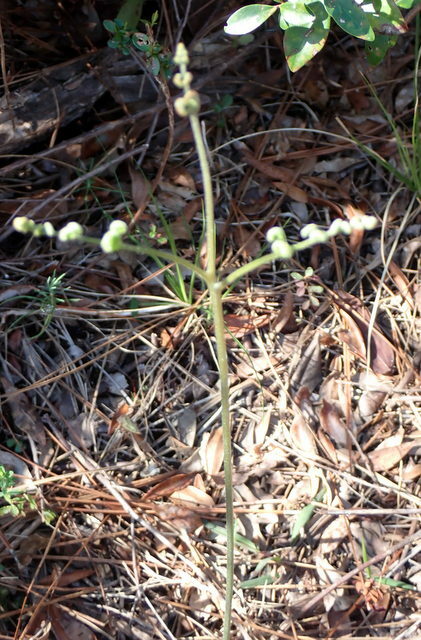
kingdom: Plantae
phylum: Tracheophyta
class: Polypodiopsida
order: Polypodiales
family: Dennstaedtiaceae
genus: Pteridium
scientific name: Pteridium aquilinum
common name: Bracken
